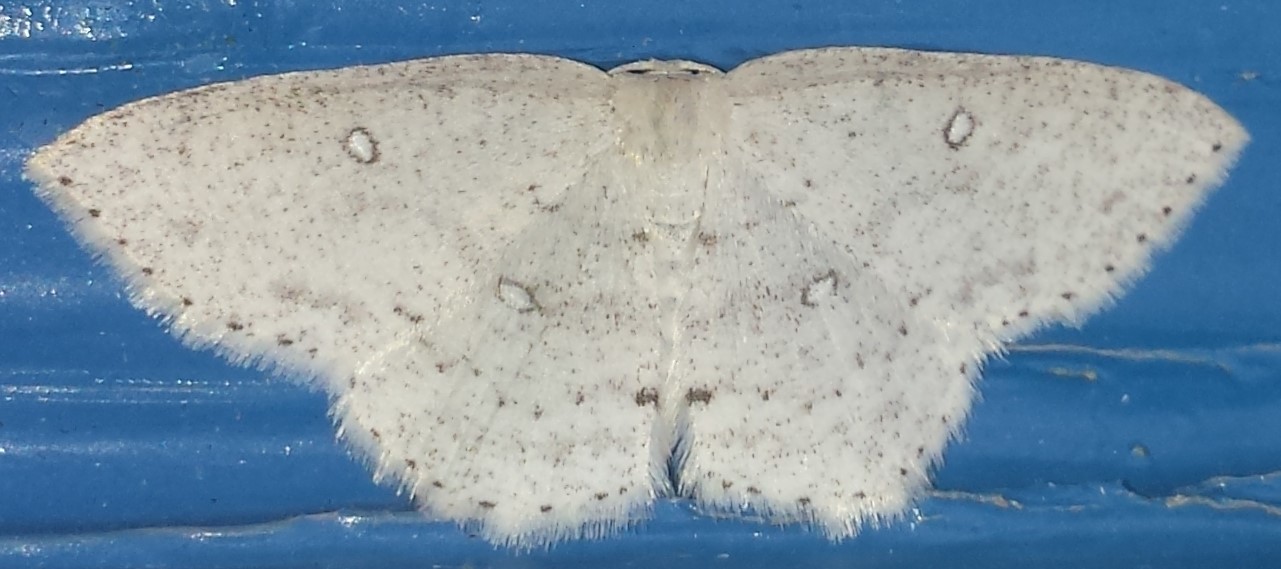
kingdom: Animalia
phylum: Arthropoda
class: Insecta
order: Lepidoptera
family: Geometridae
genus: Cyclophora
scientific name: Cyclophora pendulinaria
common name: Sweet fern geometer
